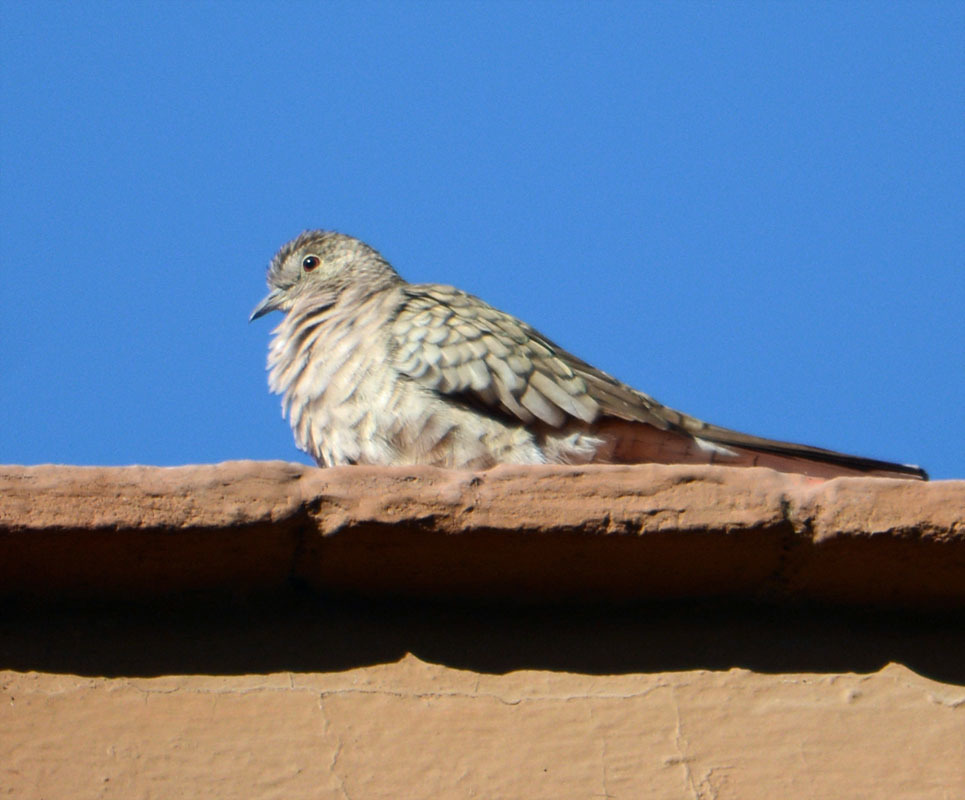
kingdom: Animalia
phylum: Chordata
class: Aves
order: Columbiformes
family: Columbidae
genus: Columbina
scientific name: Columbina inca
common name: Inca dove
